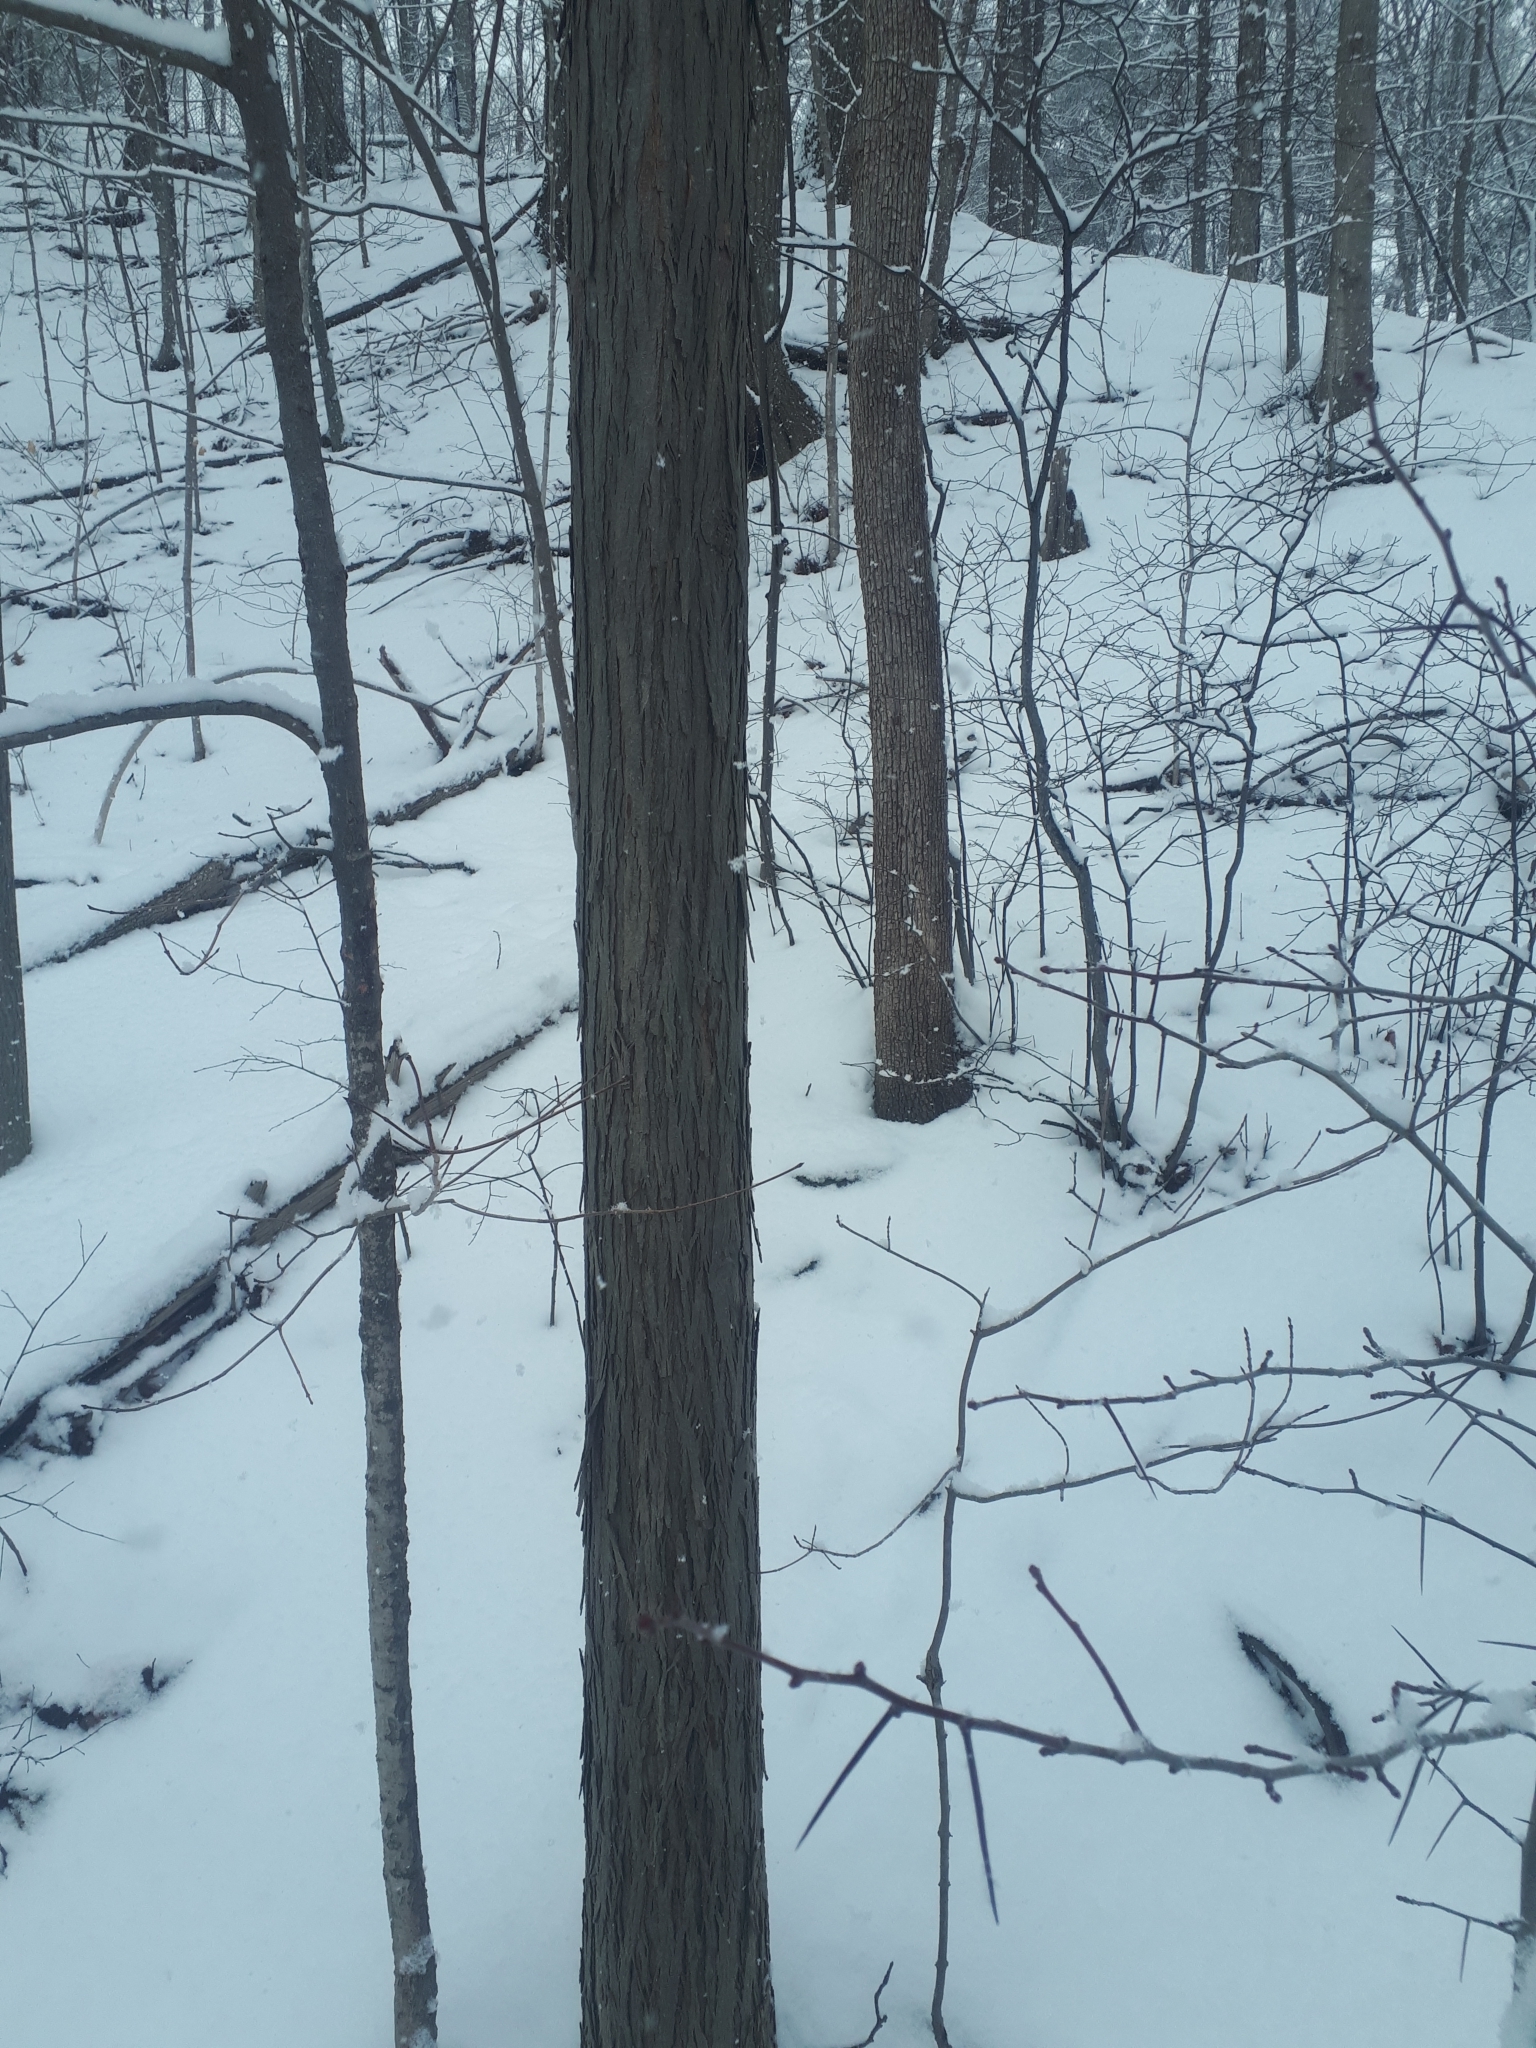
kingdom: Plantae
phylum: Tracheophyta
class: Magnoliopsida
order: Fagales
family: Juglandaceae
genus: Carya
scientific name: Carya ovata
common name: Shagbark hickory
